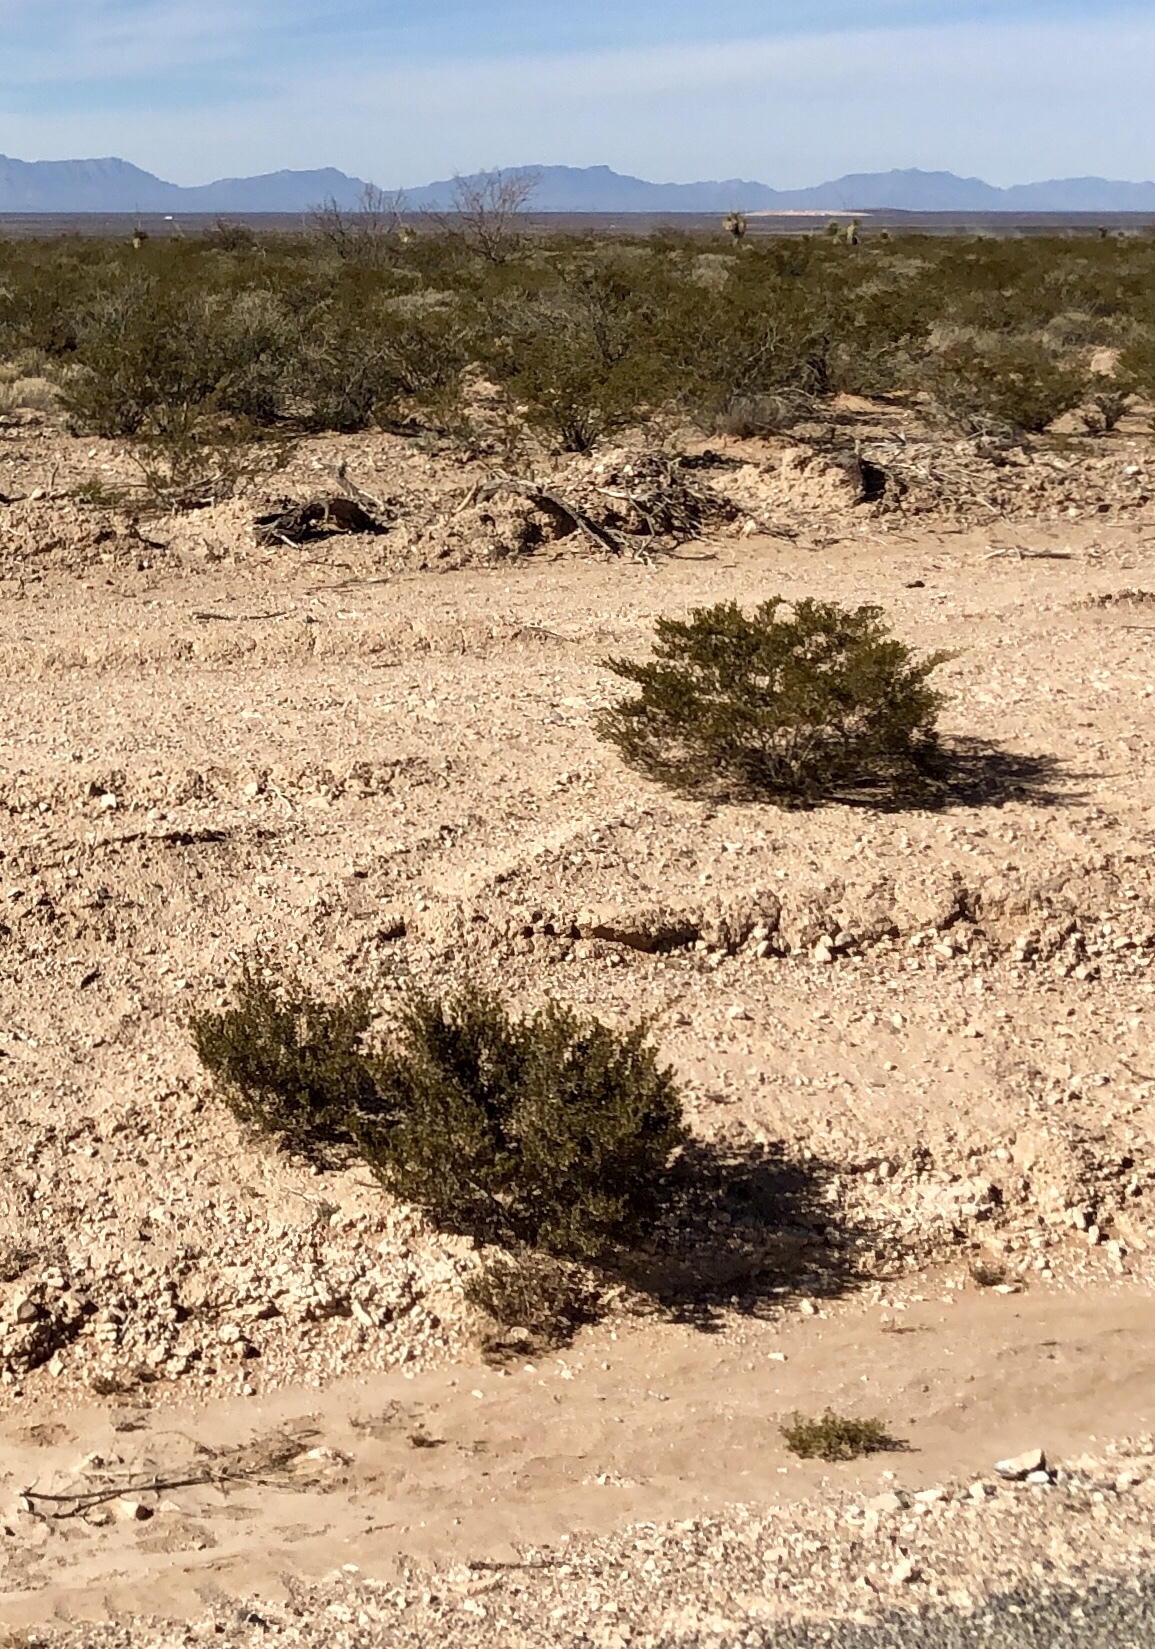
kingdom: Plantae
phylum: Tracheophyta
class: Magnoliopsida
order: Zygophyllales
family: Zygophyllaceae
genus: Larrea
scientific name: Larrea tridentata
